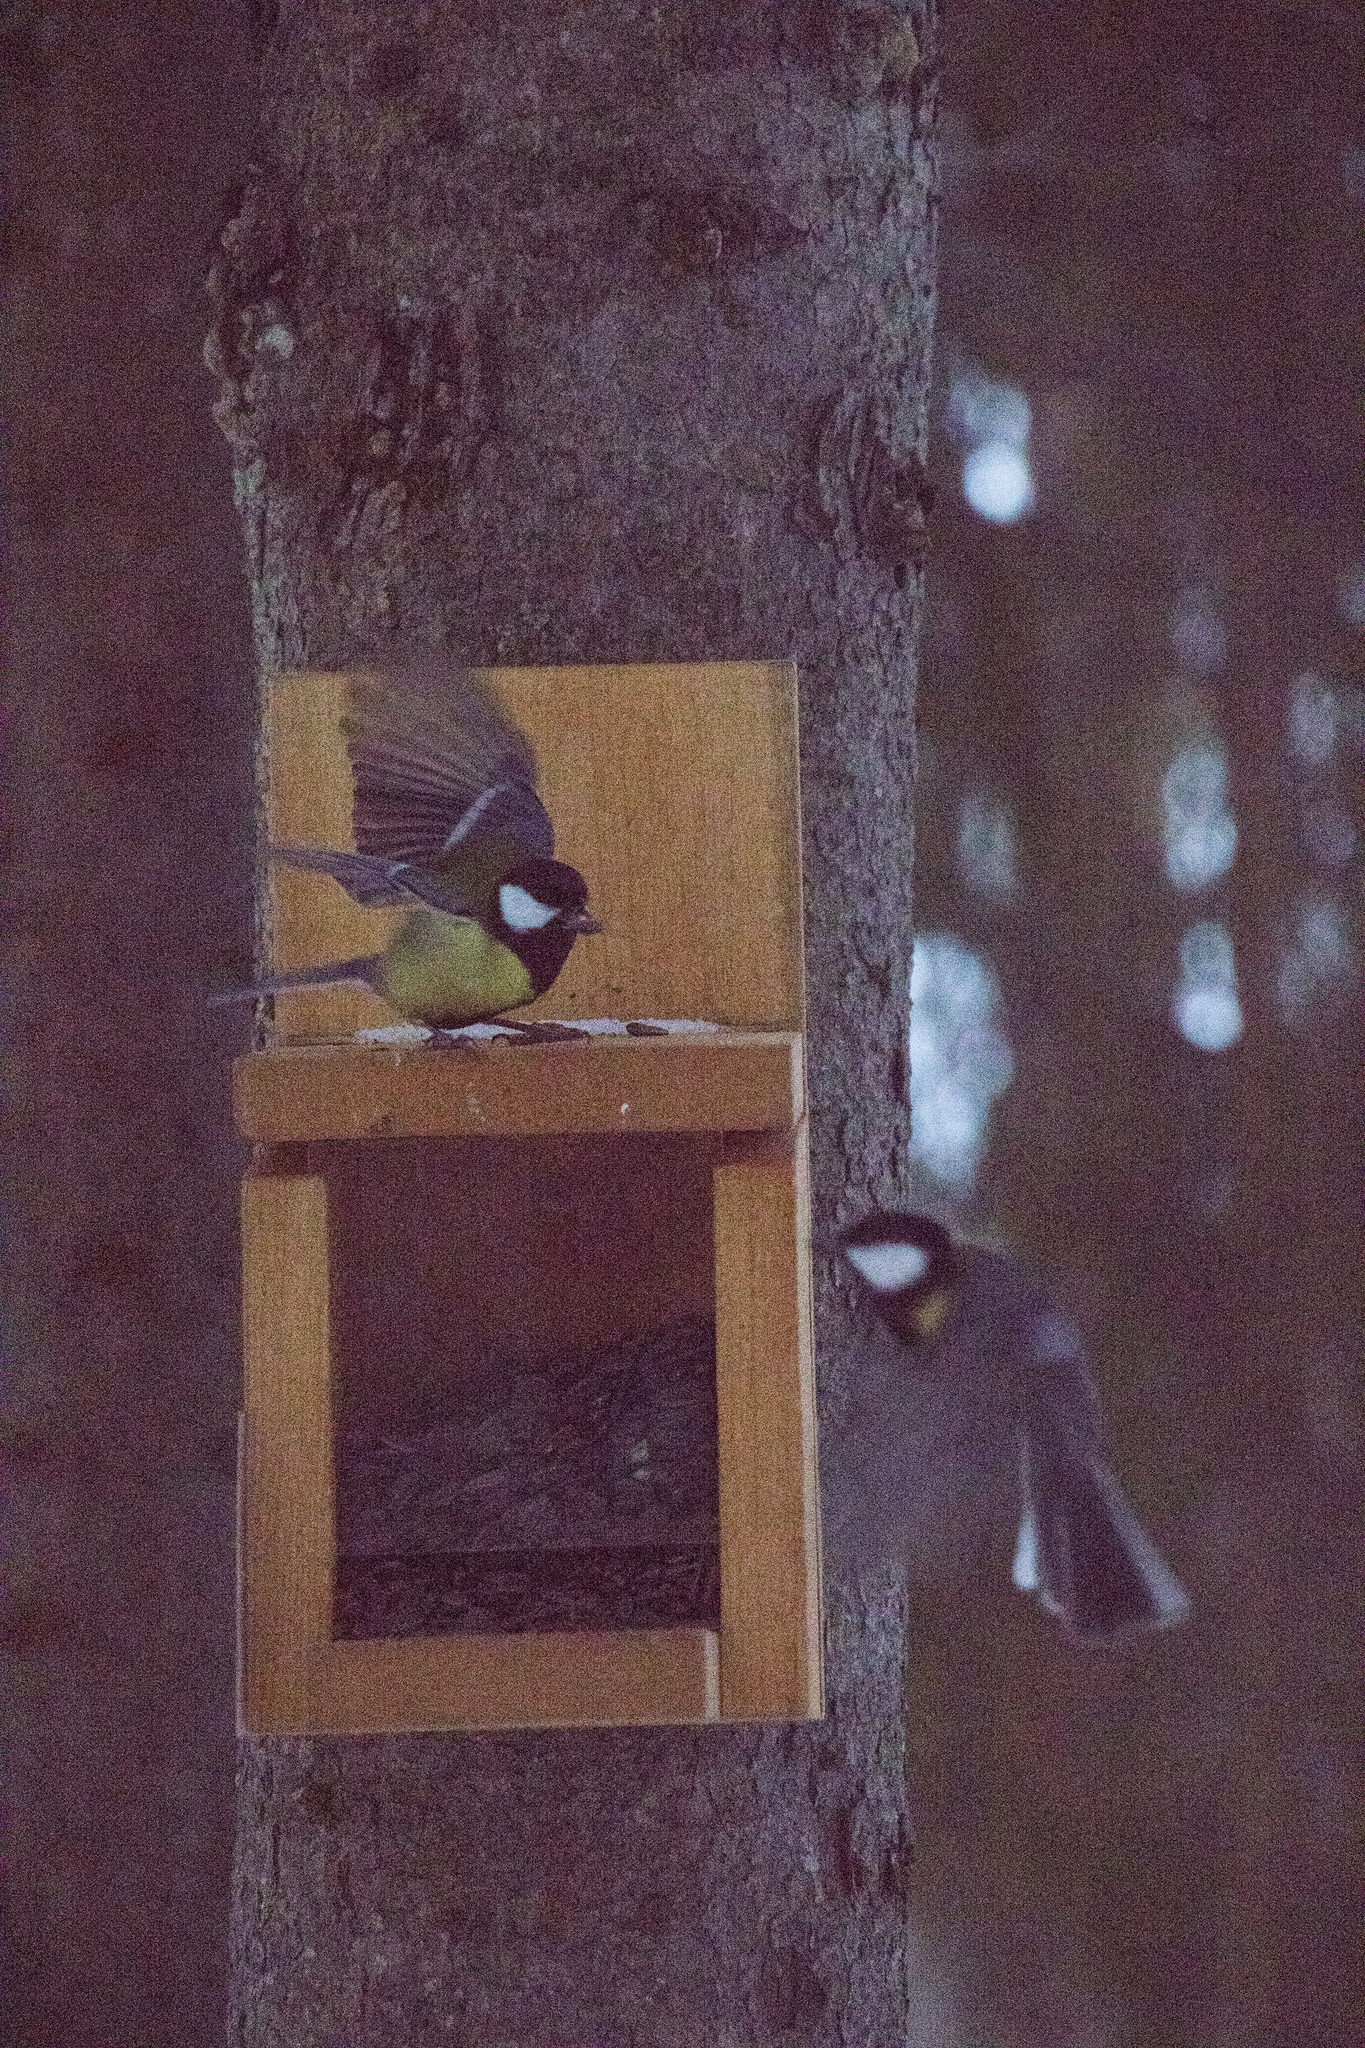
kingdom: Animalia
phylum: Chordata
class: Aves
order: Passeriformes
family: Paridae
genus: Parus
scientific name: Parus major
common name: Great tit
